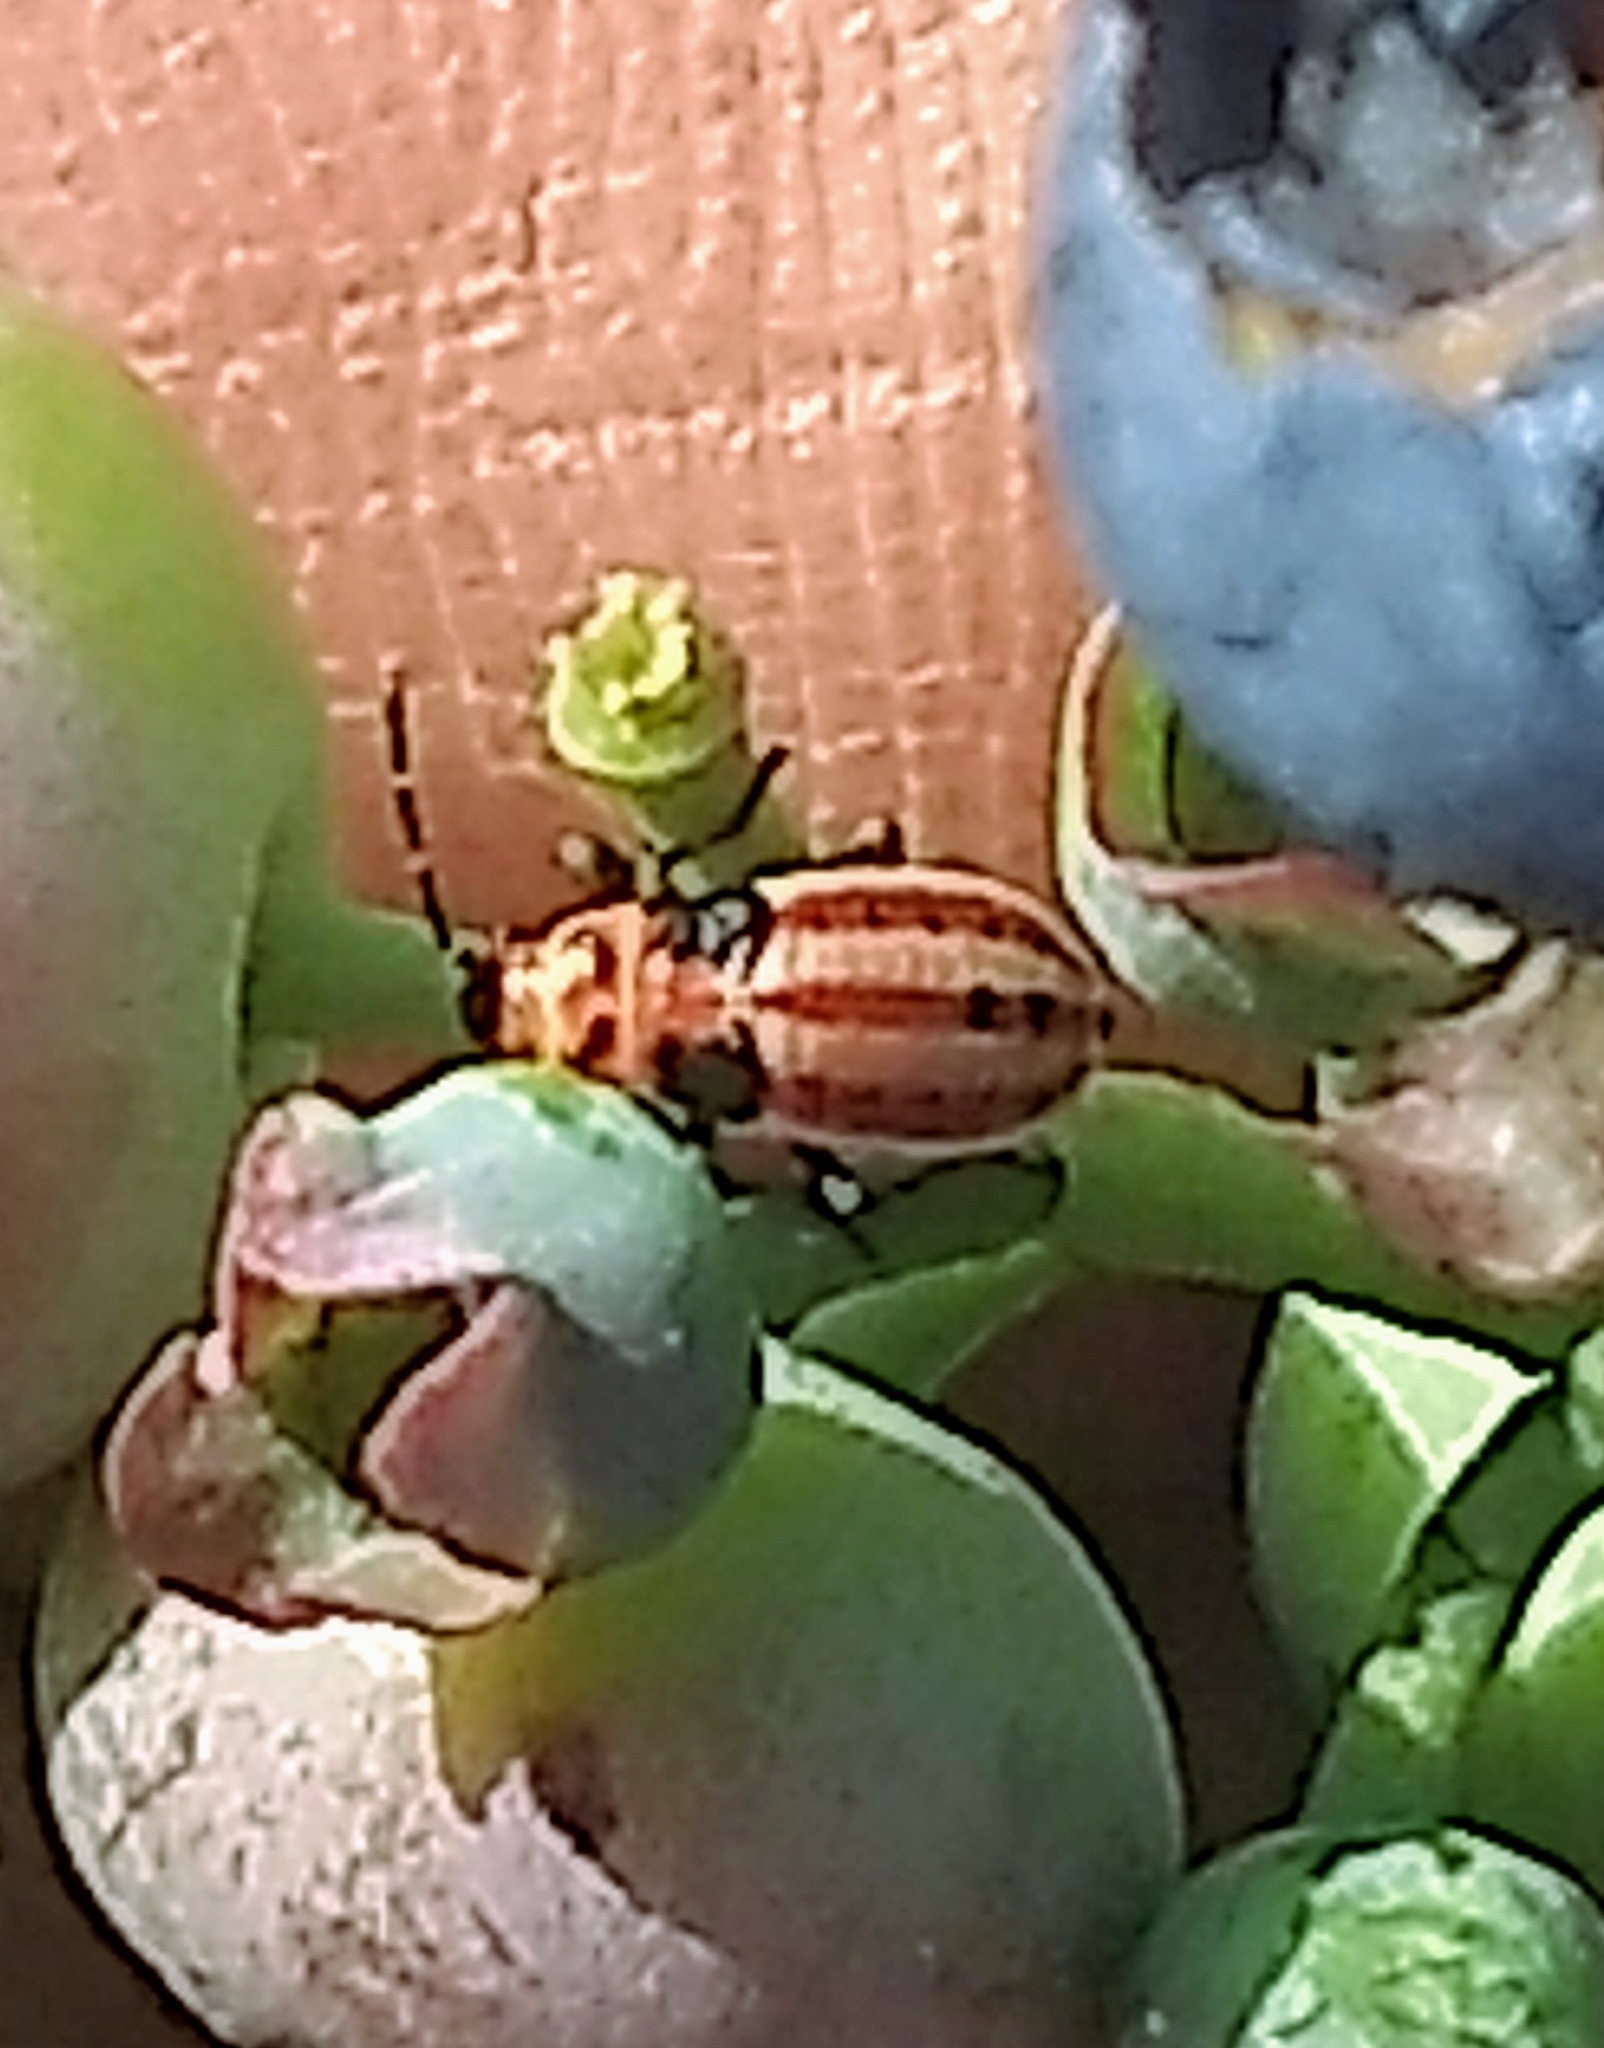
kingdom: Animalia
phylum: Arthropoda
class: Insecta
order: Hemiptera
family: Lygaeidae
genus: Lygaeus
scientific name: Lygaeus kalmii
